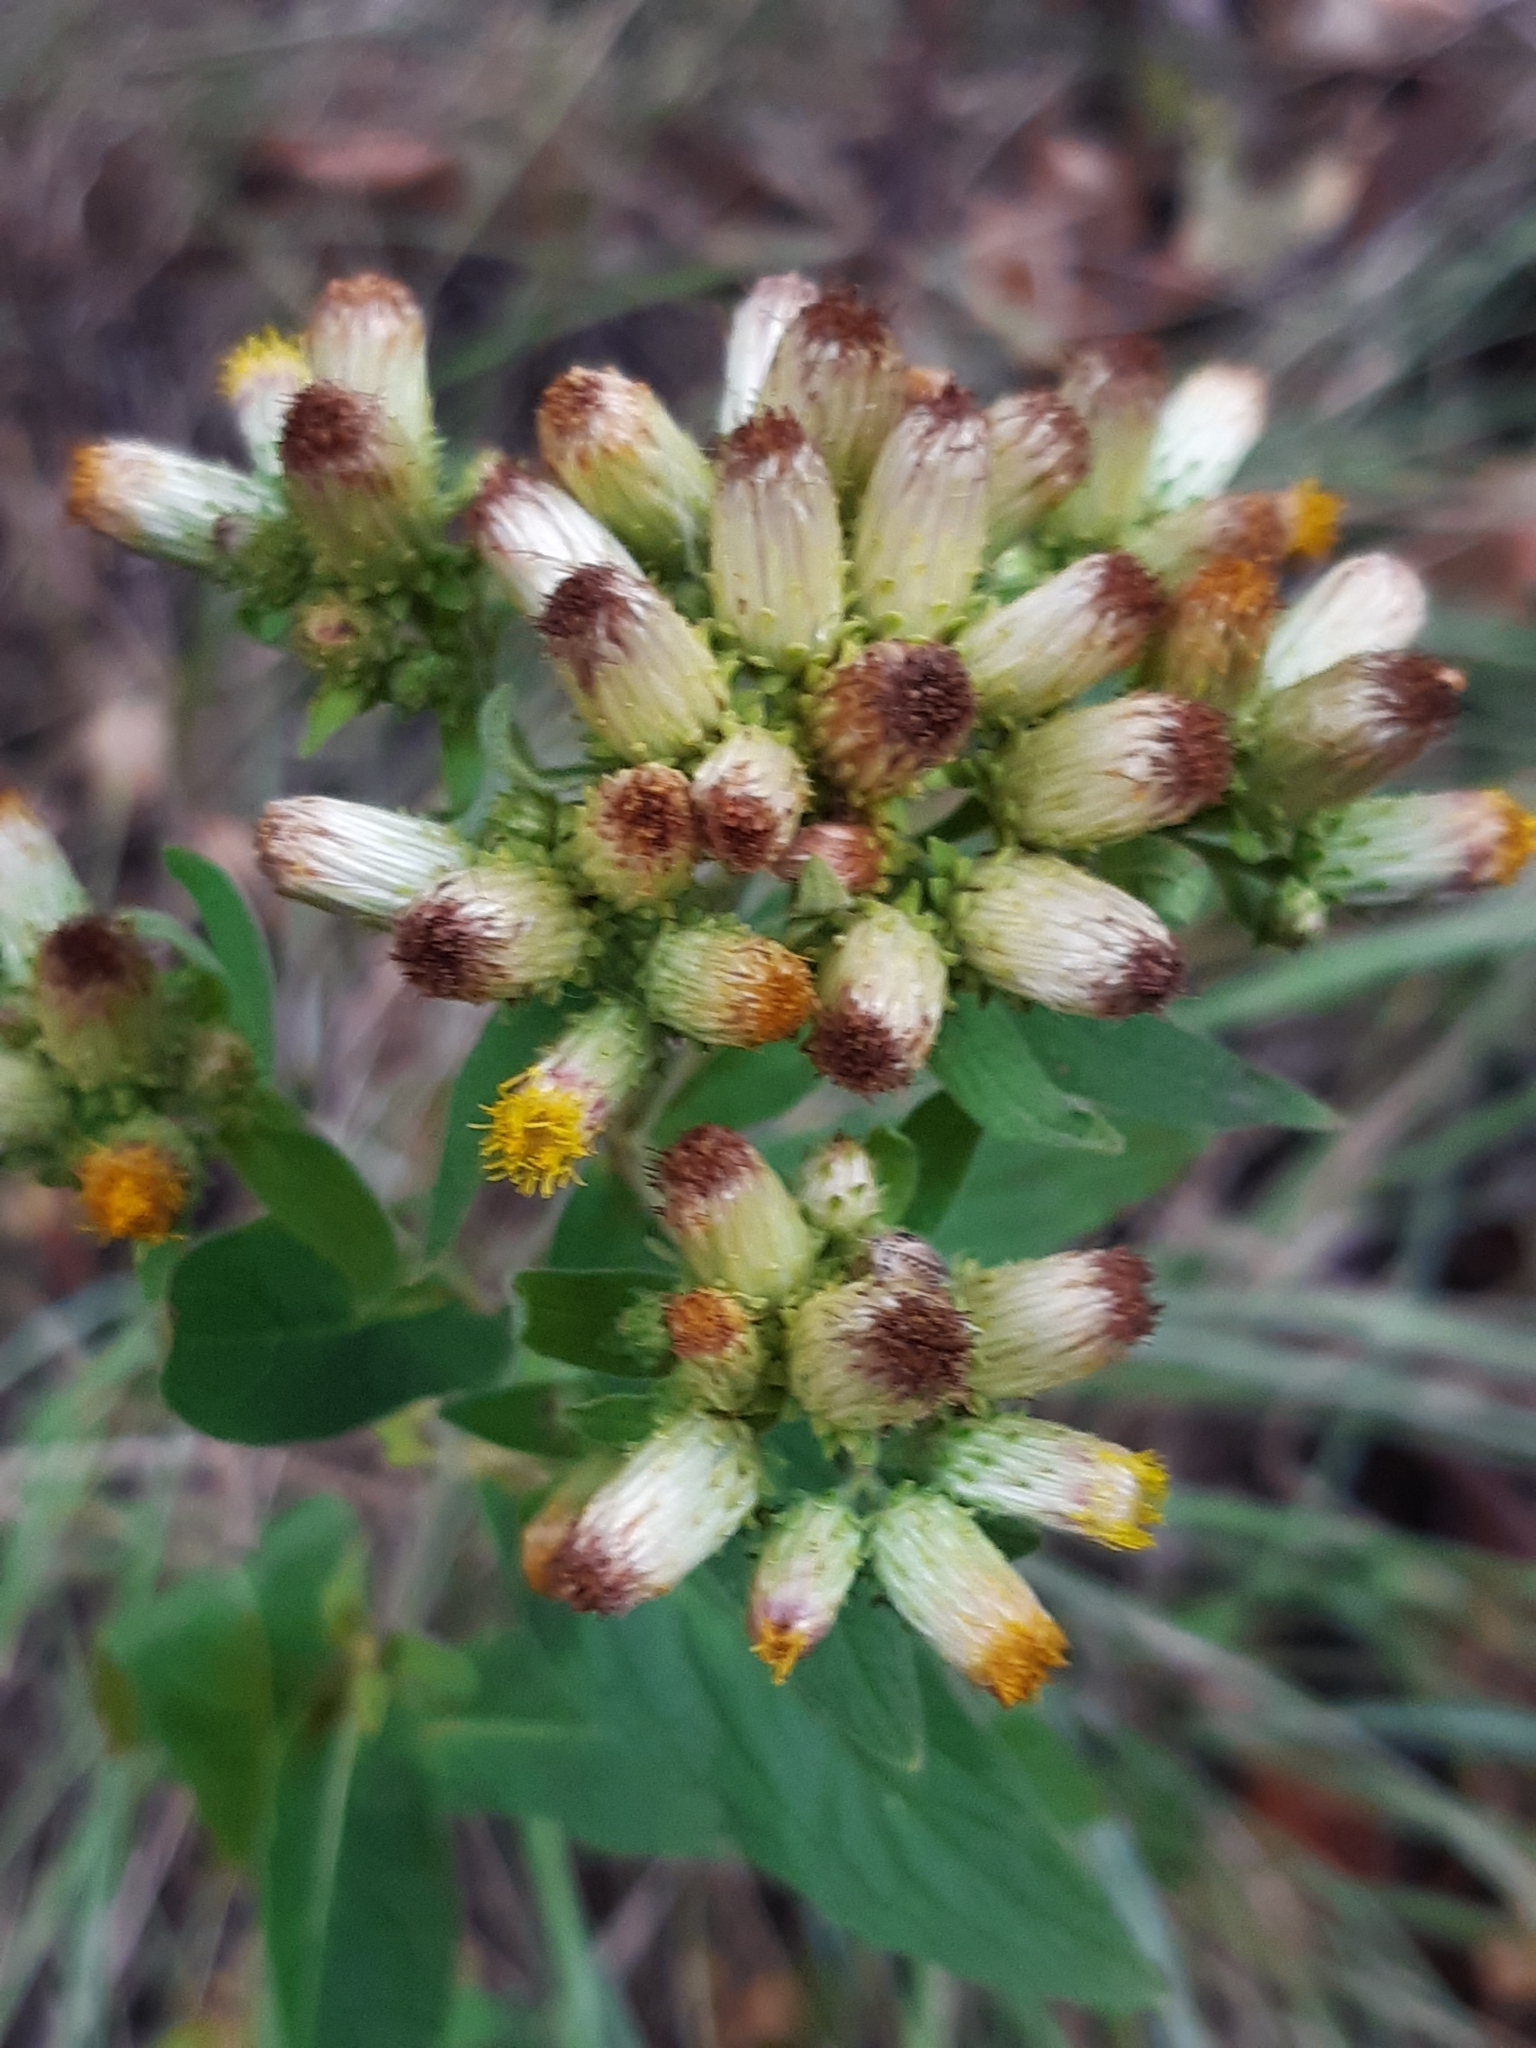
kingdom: Plantae
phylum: Tracheophyta
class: Magnoliopsida
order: Asterales
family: Asteraceae
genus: Pentanema
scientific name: Pentanema squarrosum
